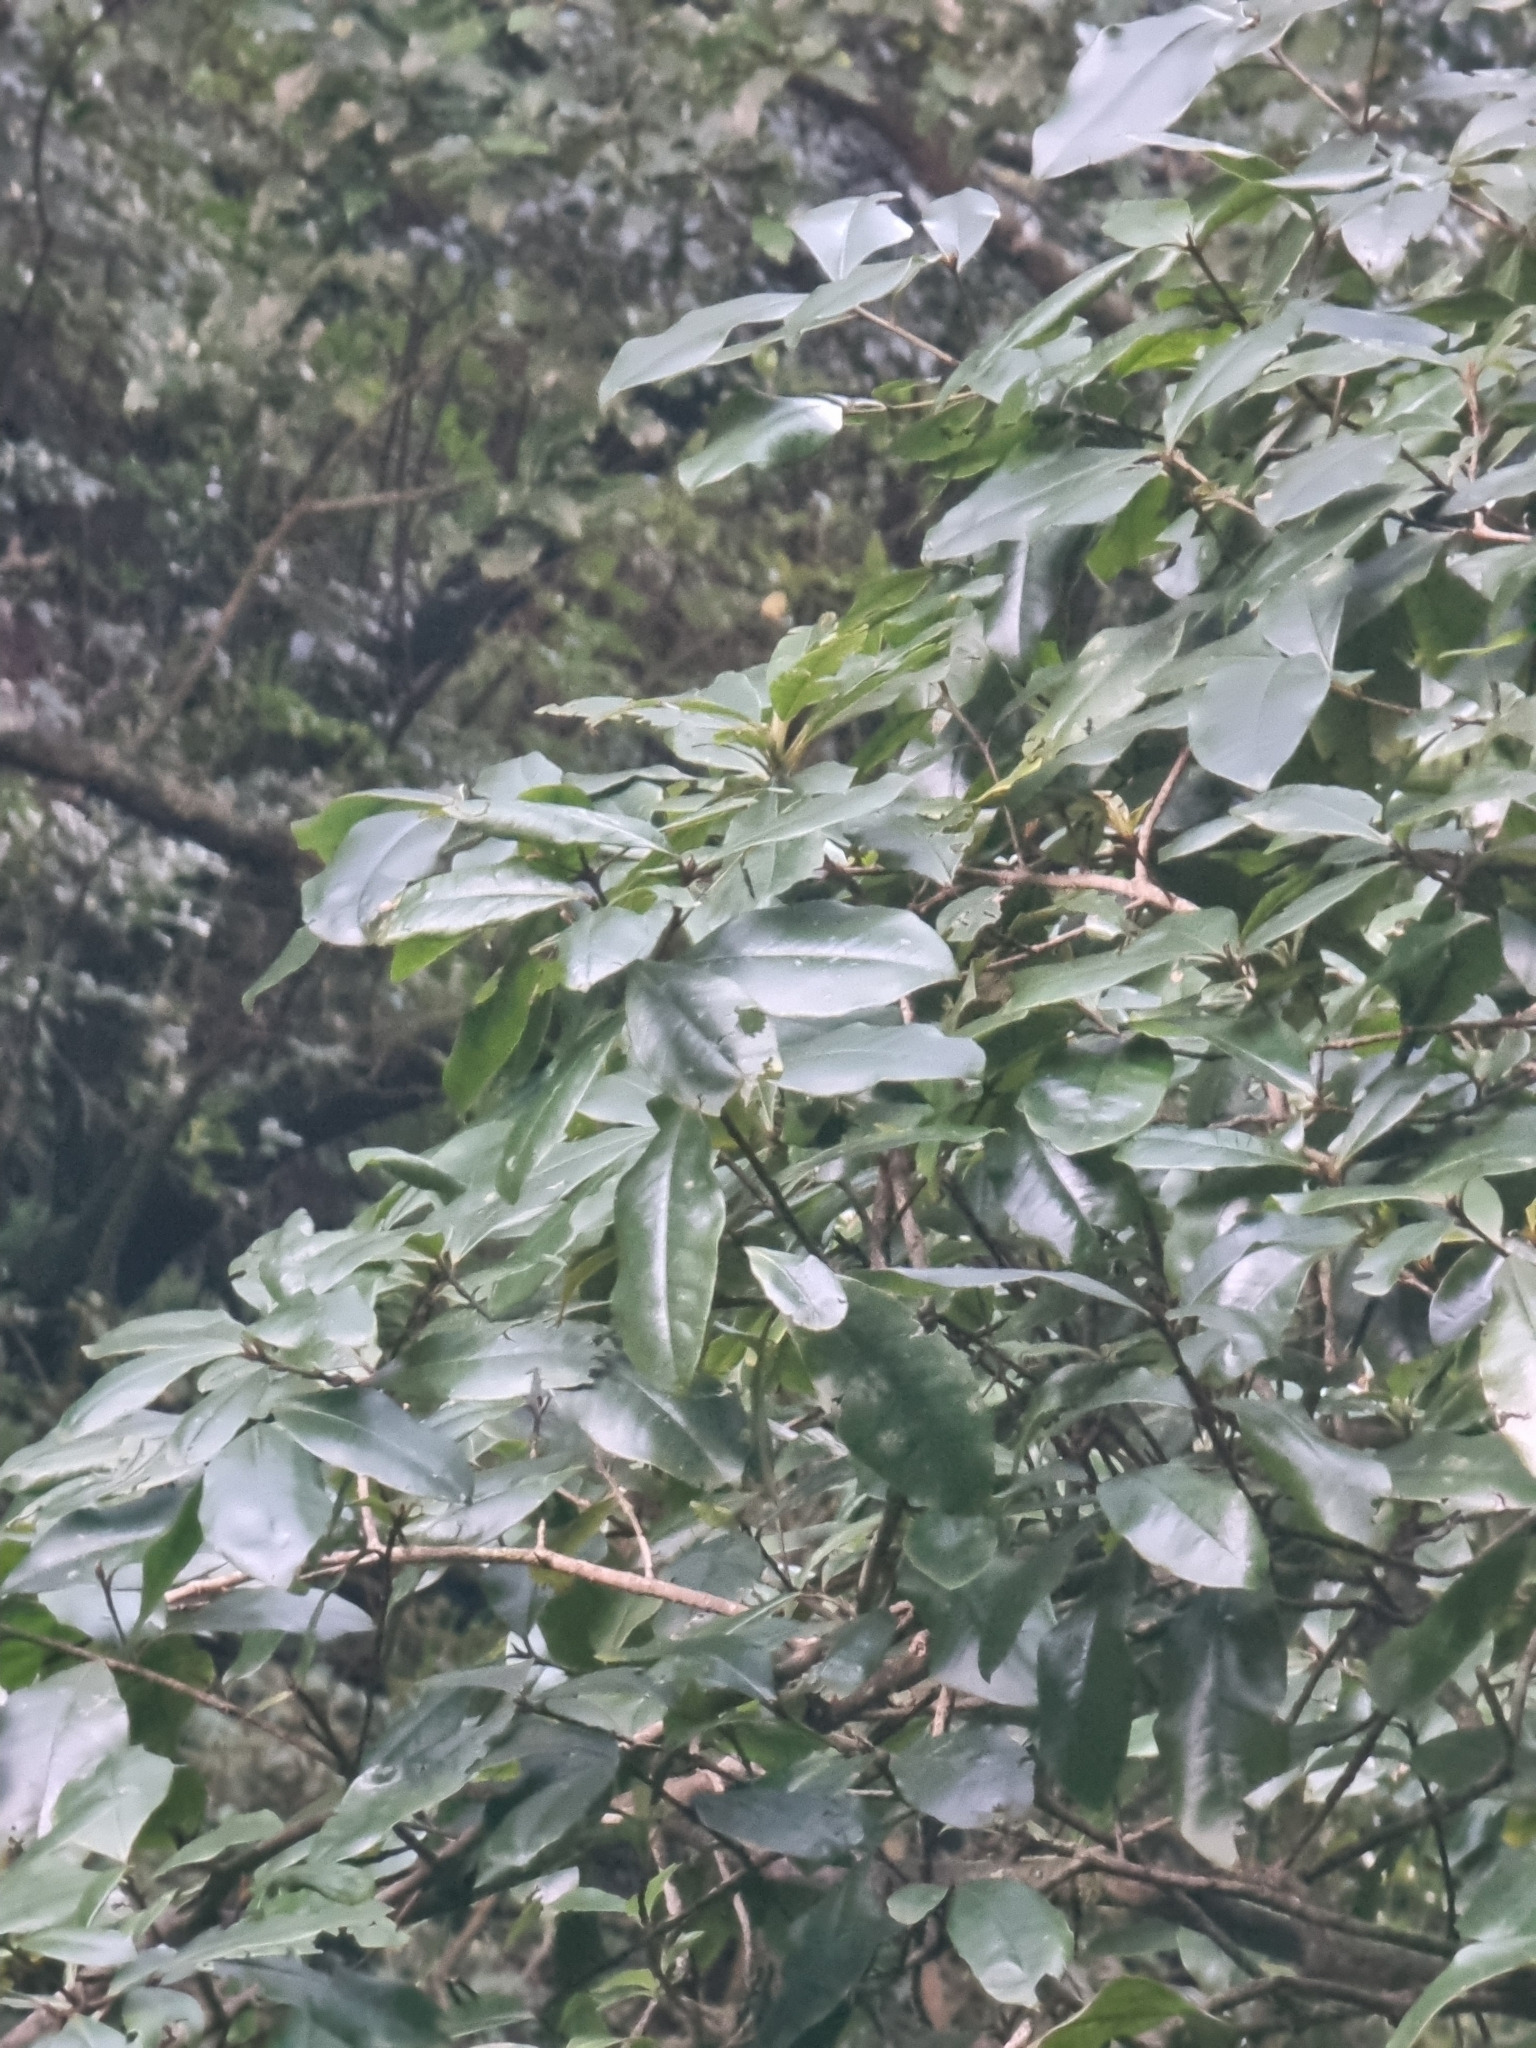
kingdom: Plantae
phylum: Tracheophyta
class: Magnoliopsida
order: Ericales
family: Primulaceae
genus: Heberdenia
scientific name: Heberdenia excelsa
